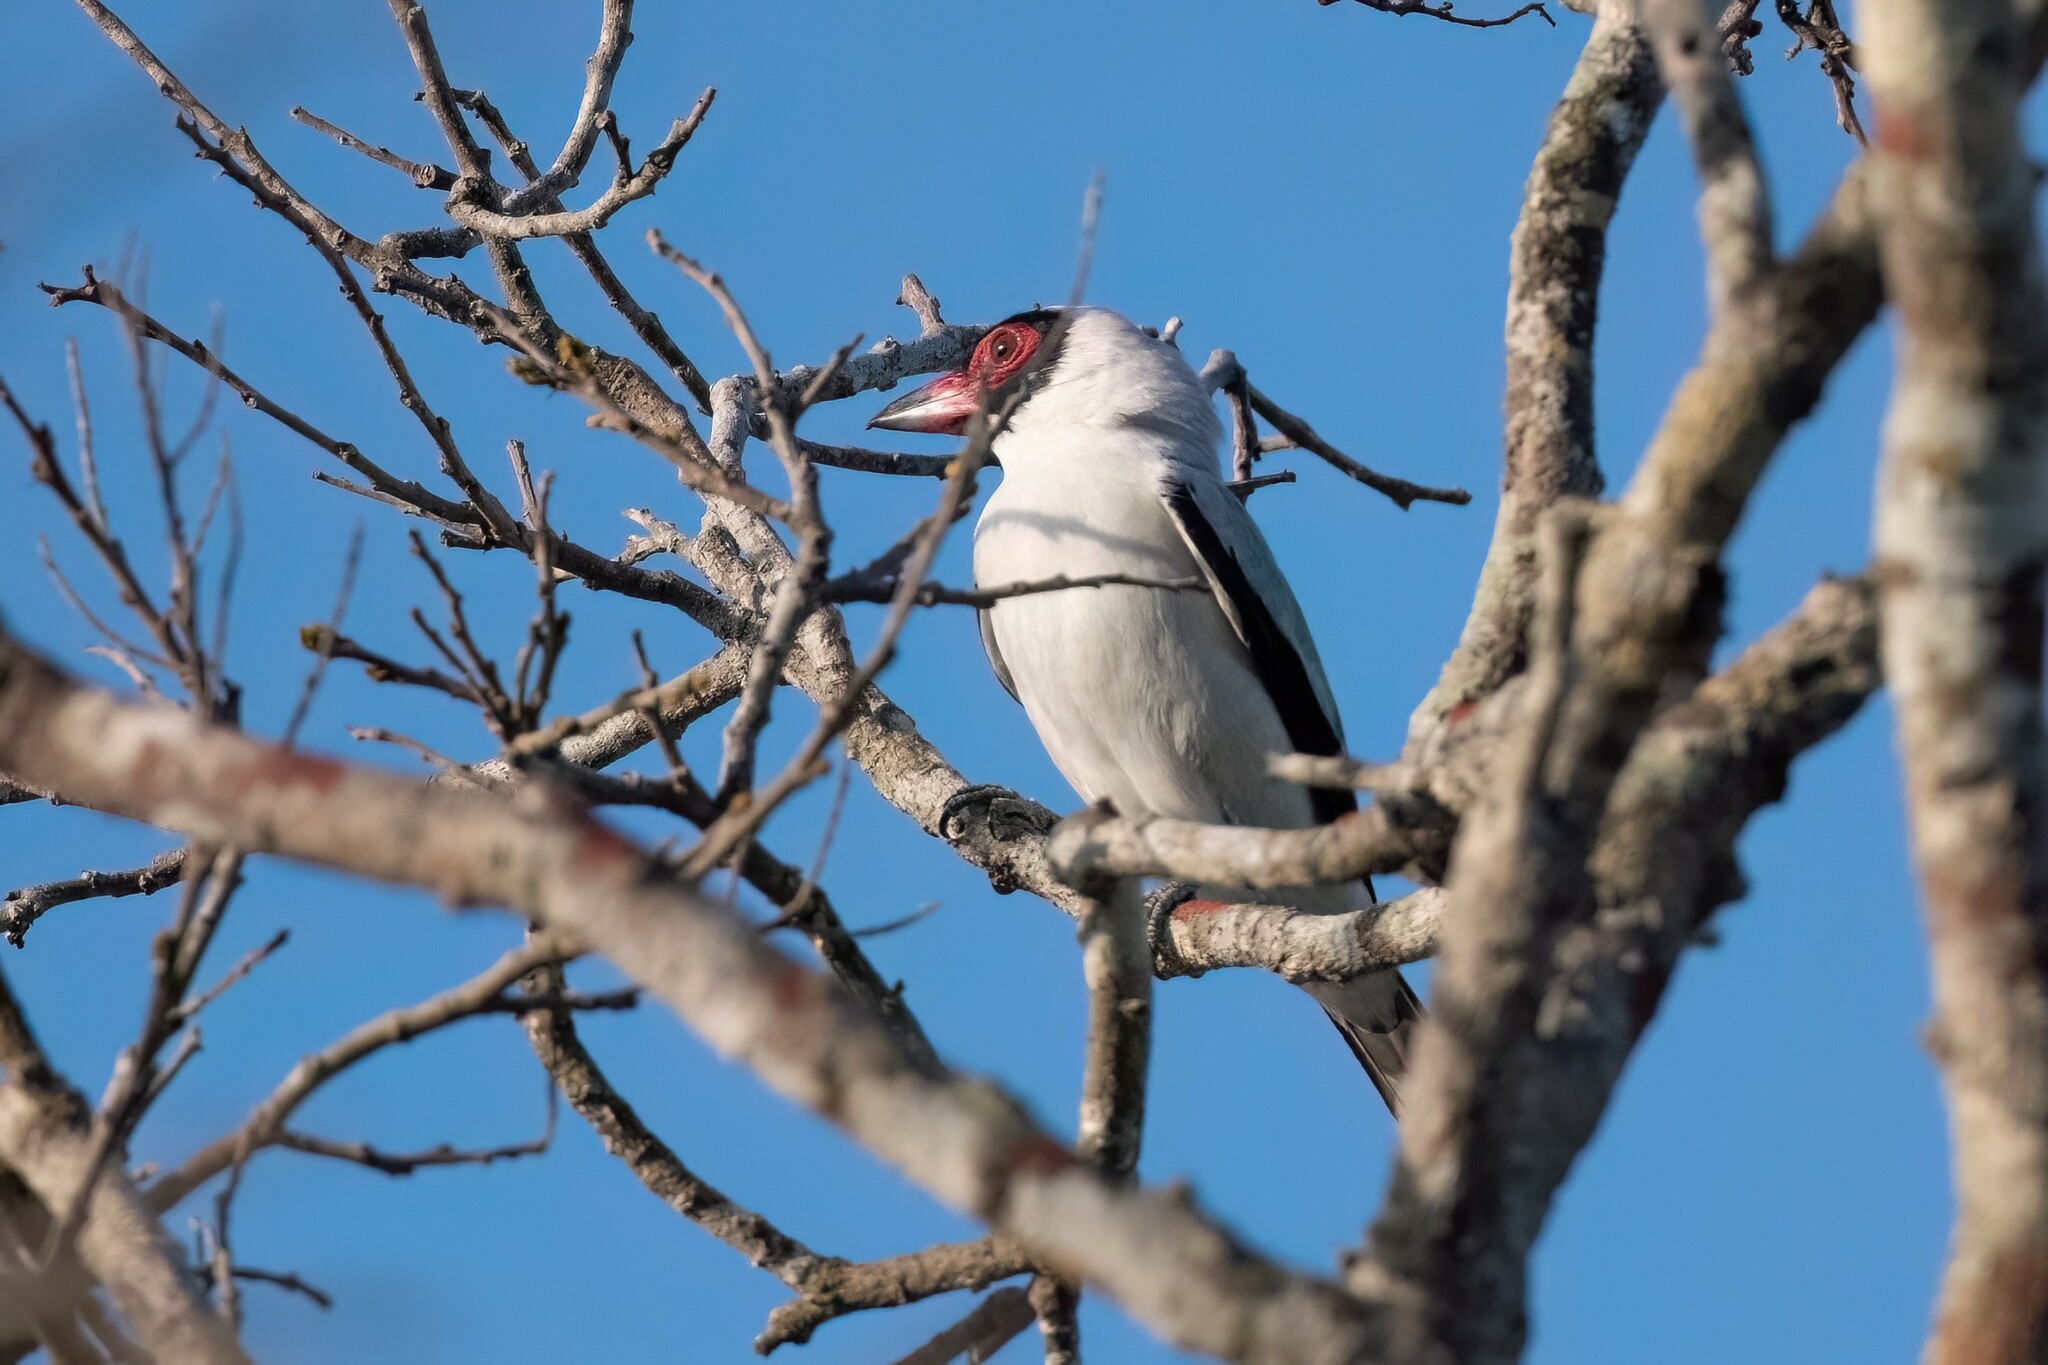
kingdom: Animalia
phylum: Chordata
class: Aves
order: Passeriformes
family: Cotingidae
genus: Tityra
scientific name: Tityra semifasciata
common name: Masked tityra
